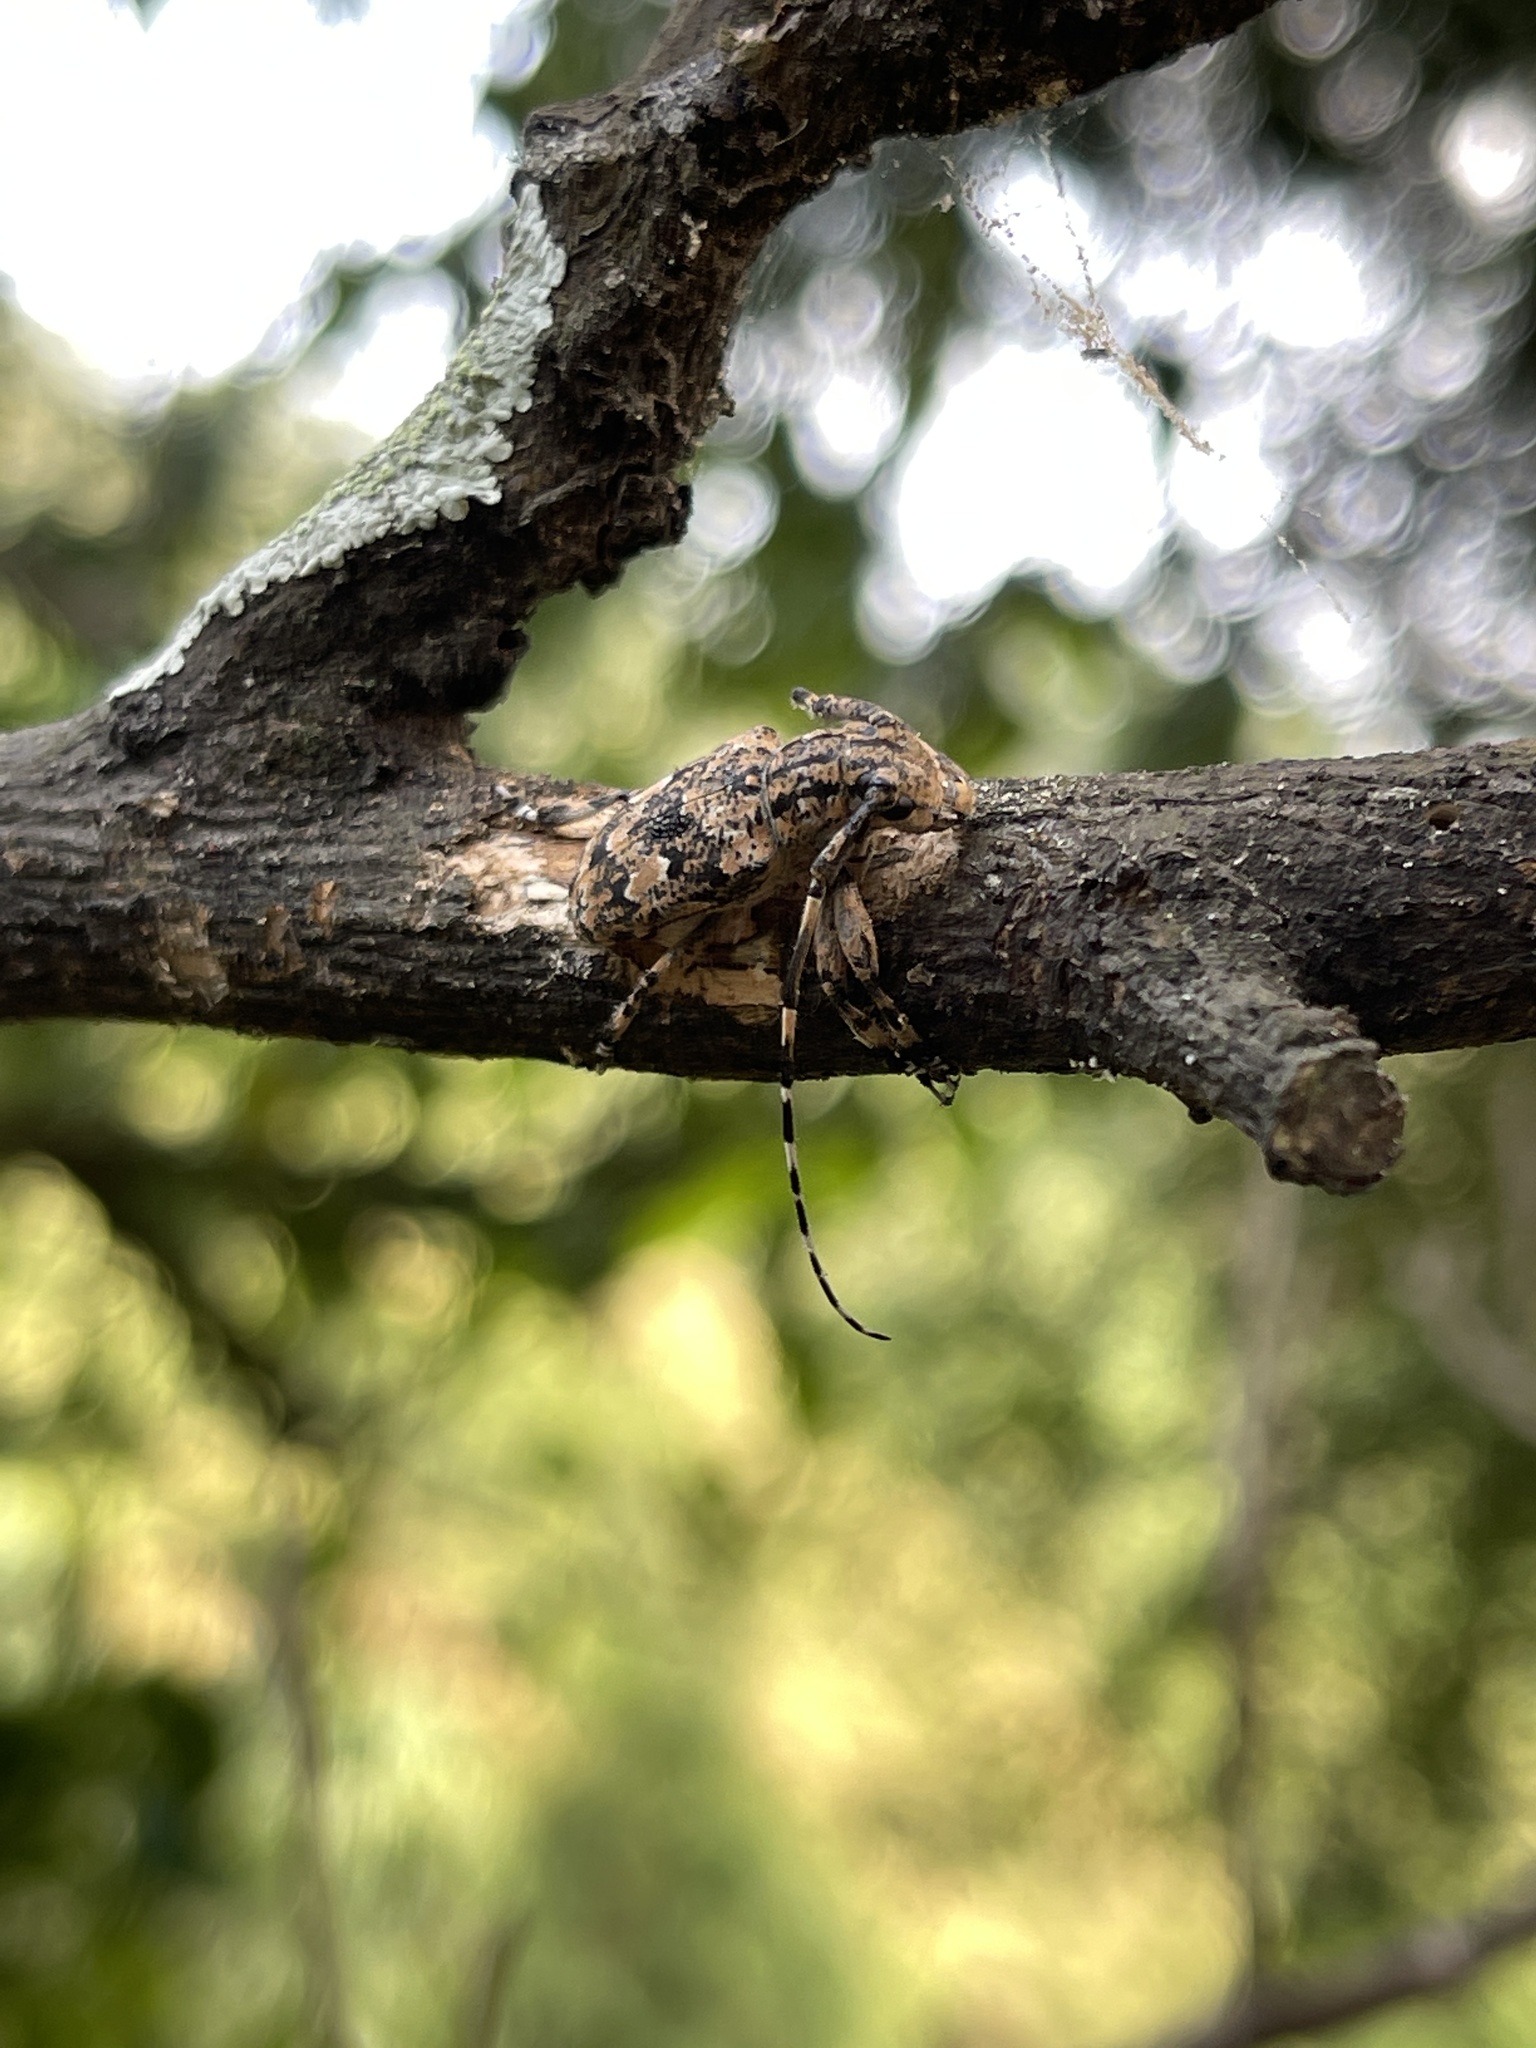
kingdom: Animalia
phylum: Arthropoda
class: Insecta
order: Coleoptera
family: Cerambycidae
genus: Agelasta
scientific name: Agelasta perplexa
